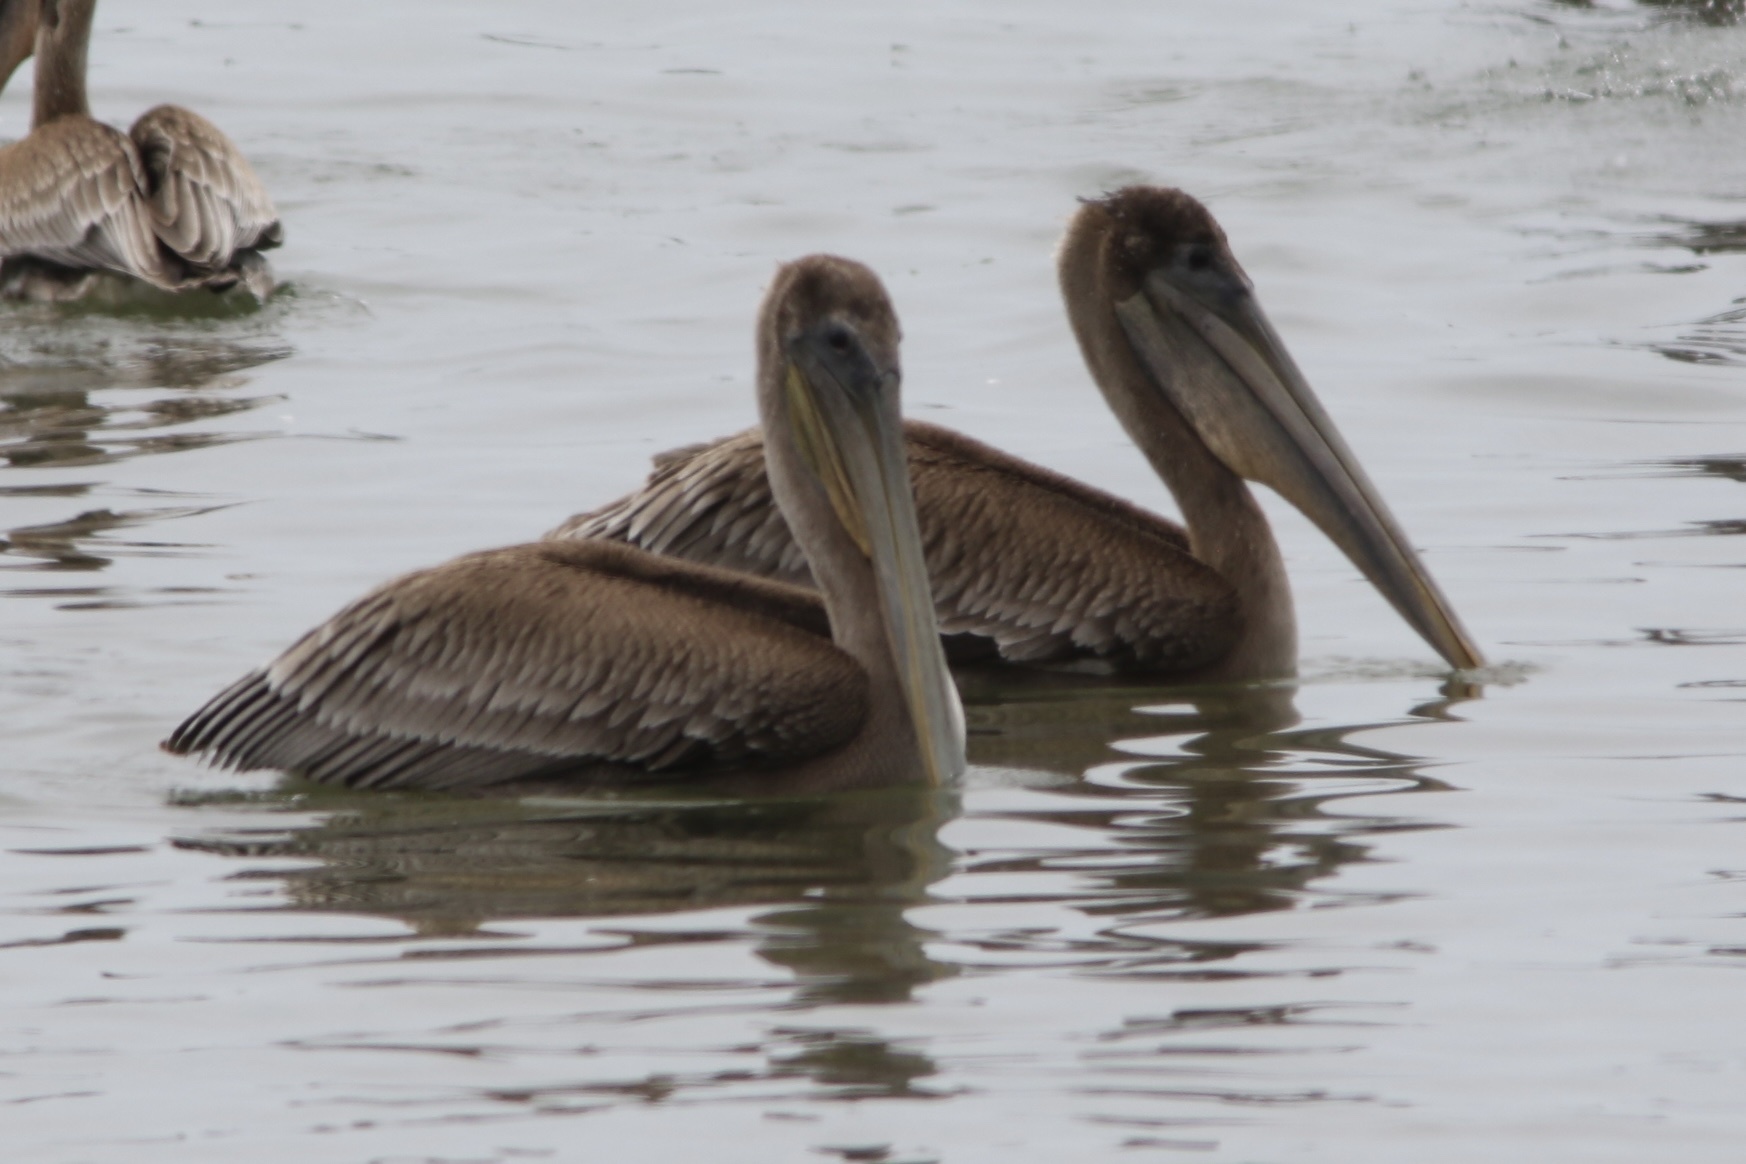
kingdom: Animalia
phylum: Chordata
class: Aves
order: Pelecaniformes
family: Pelecanidae
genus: Pelecanus
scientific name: Pelecanus occidentalis
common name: Brown pelican
